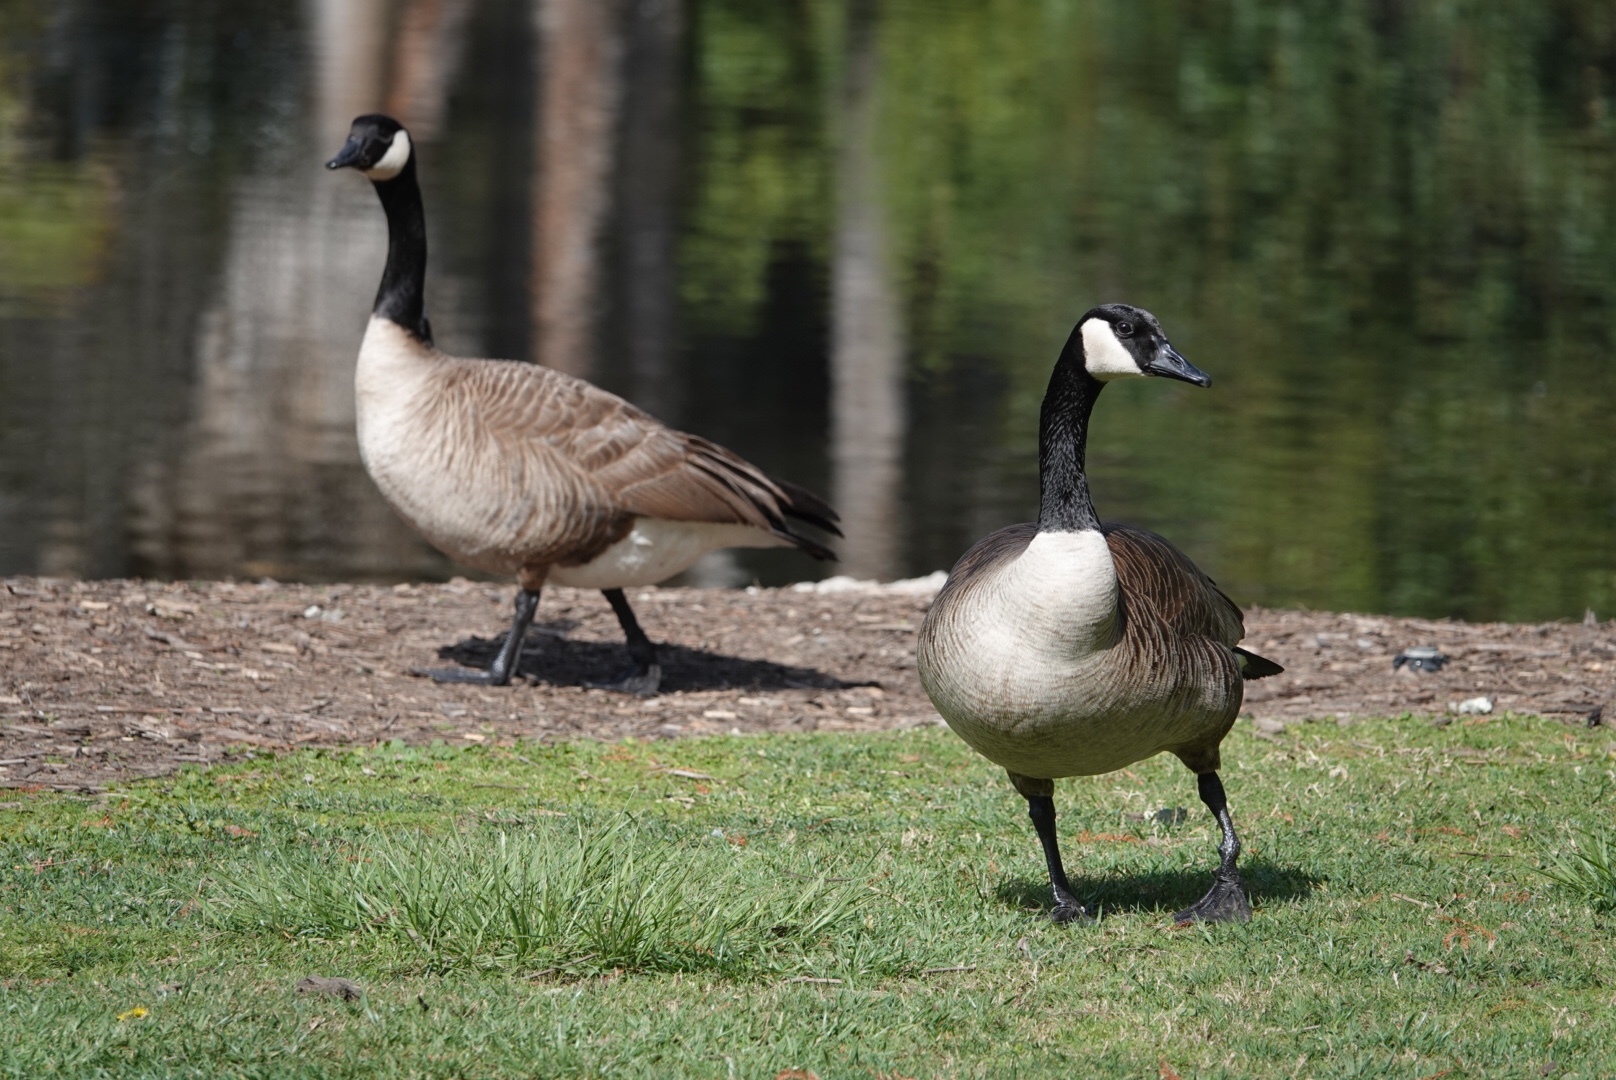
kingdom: Animalia
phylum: Chordata
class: Aves
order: Anseriformes
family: Anatidae
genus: Branta
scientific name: Branta canadensis
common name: Canada goose
